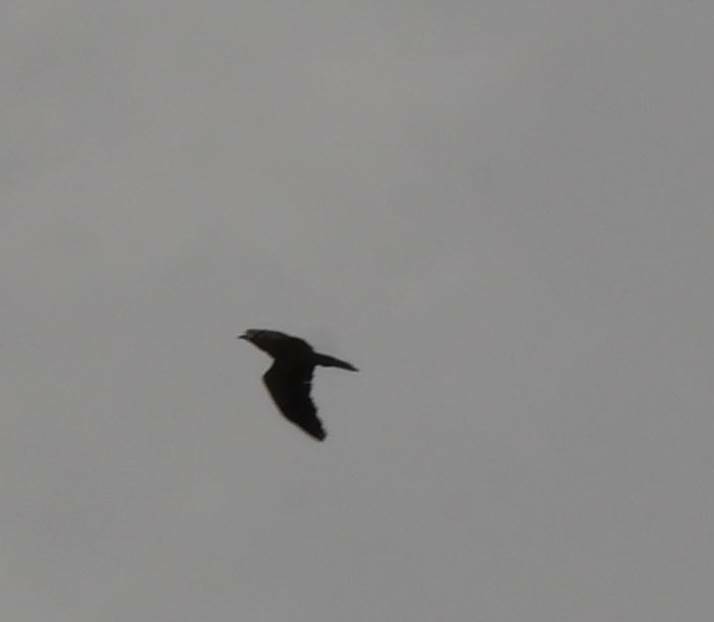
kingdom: Animalia
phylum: Chordata
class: Aves
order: Accipitriformes
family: Accipitridae
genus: Neophron
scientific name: Neophron percnopterus
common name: Egyptian vulture
